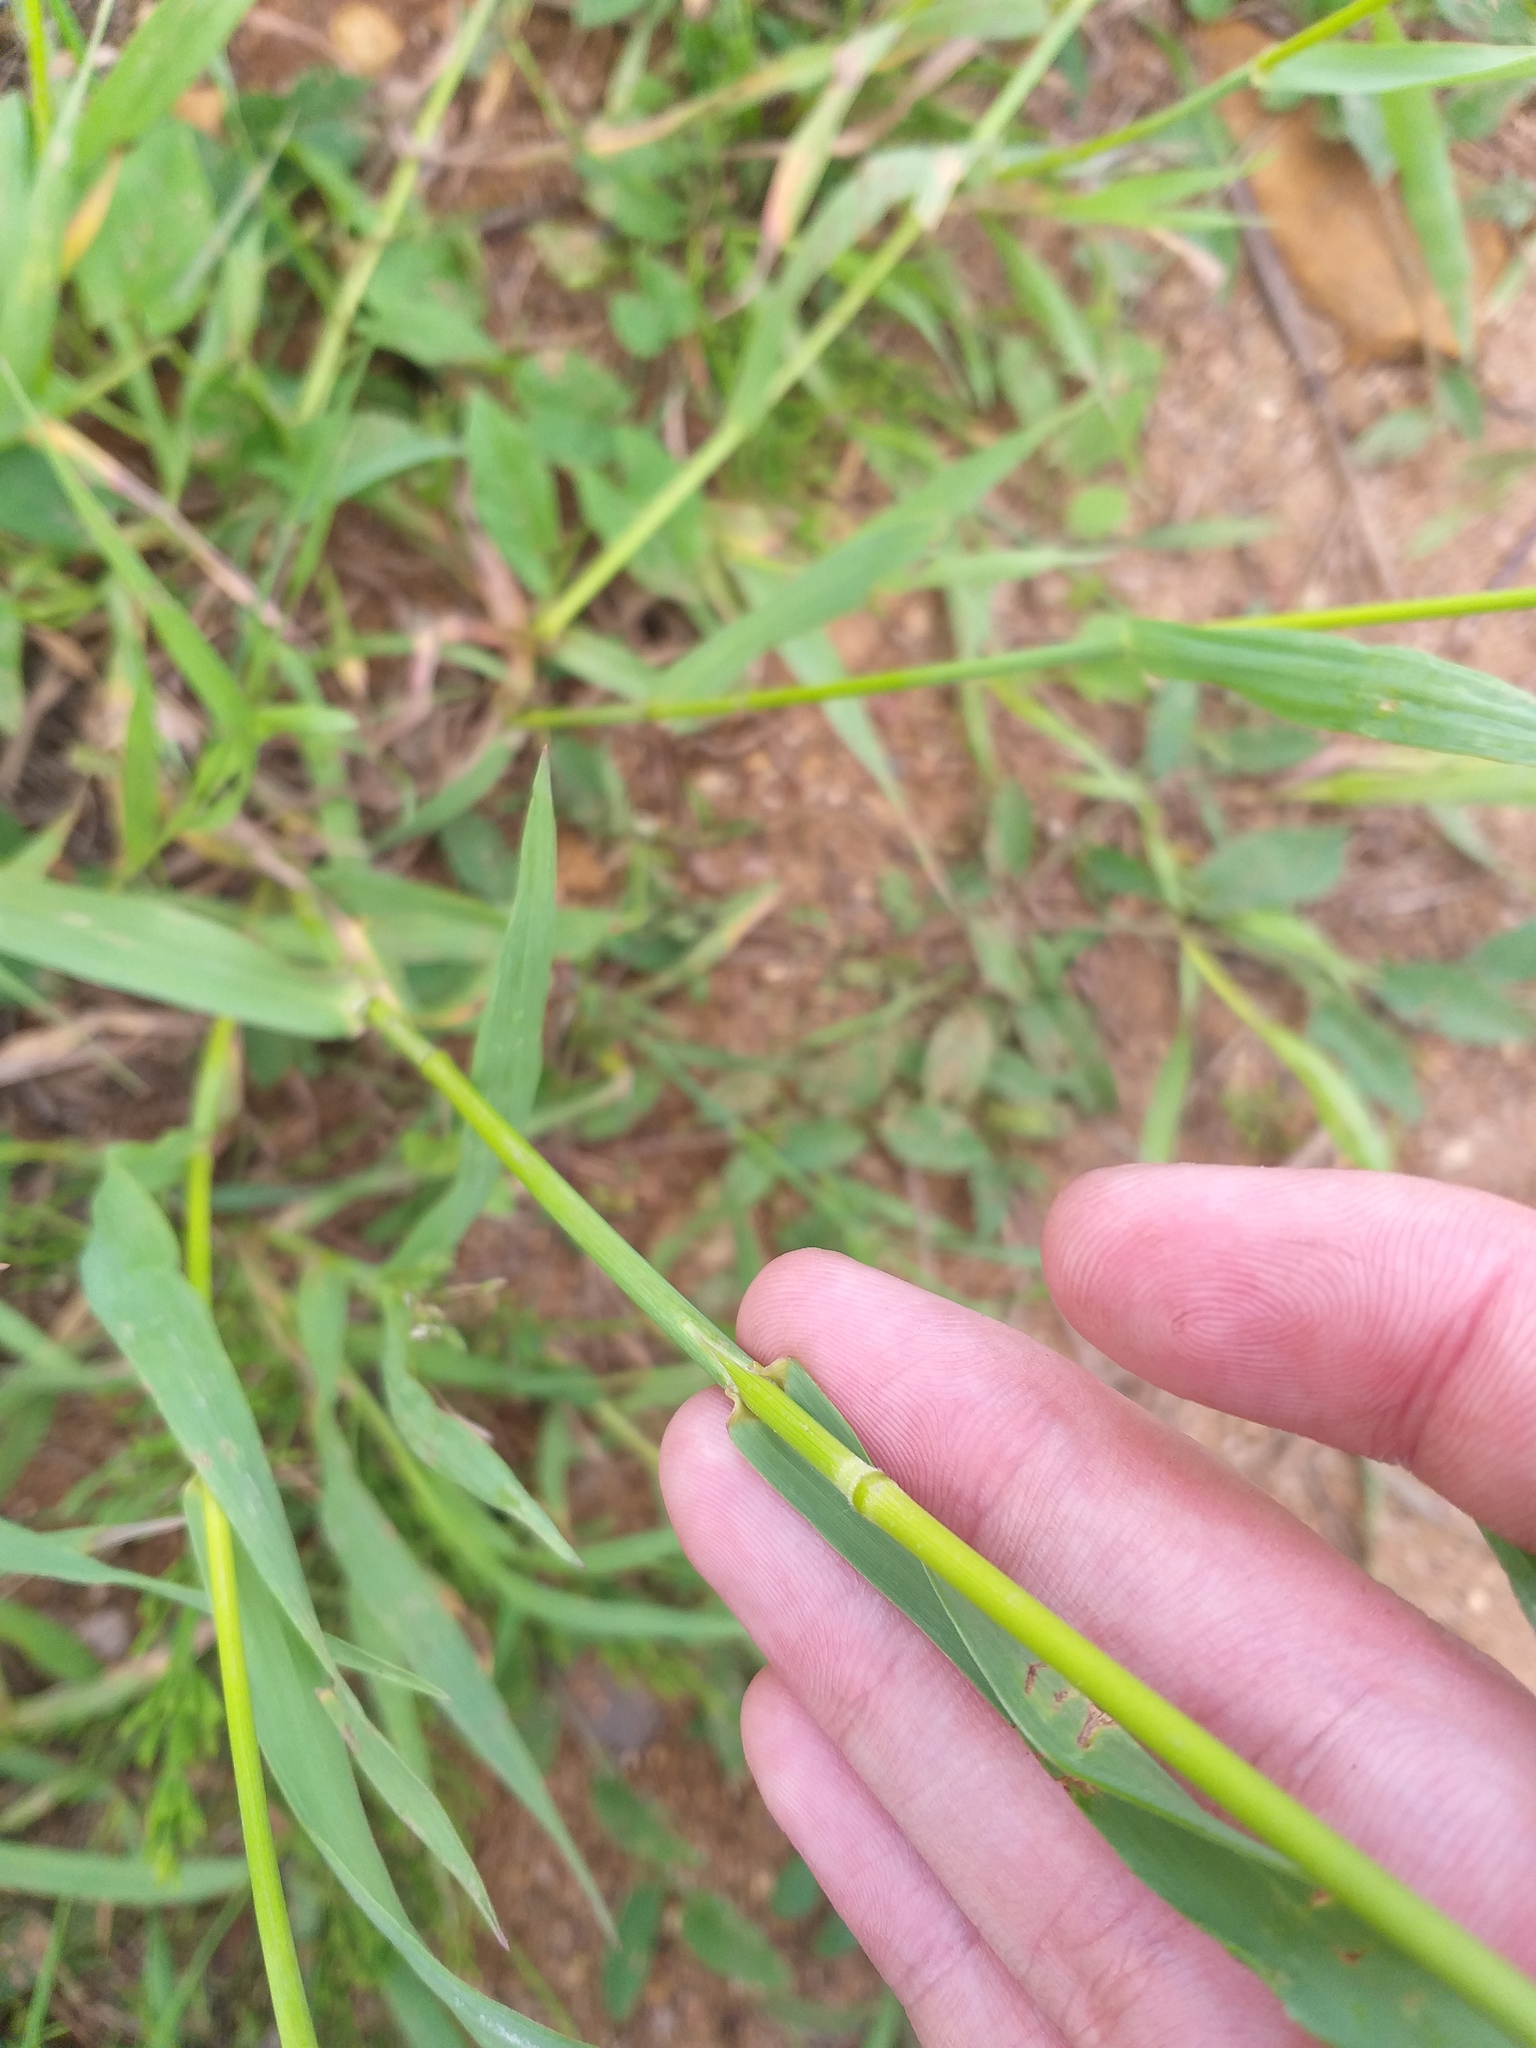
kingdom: Plantae
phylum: Tracheophyta
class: Liliopsida
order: Poales
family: Poaceae
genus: Bromus
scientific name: Bromus inermis
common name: Smooth brome
